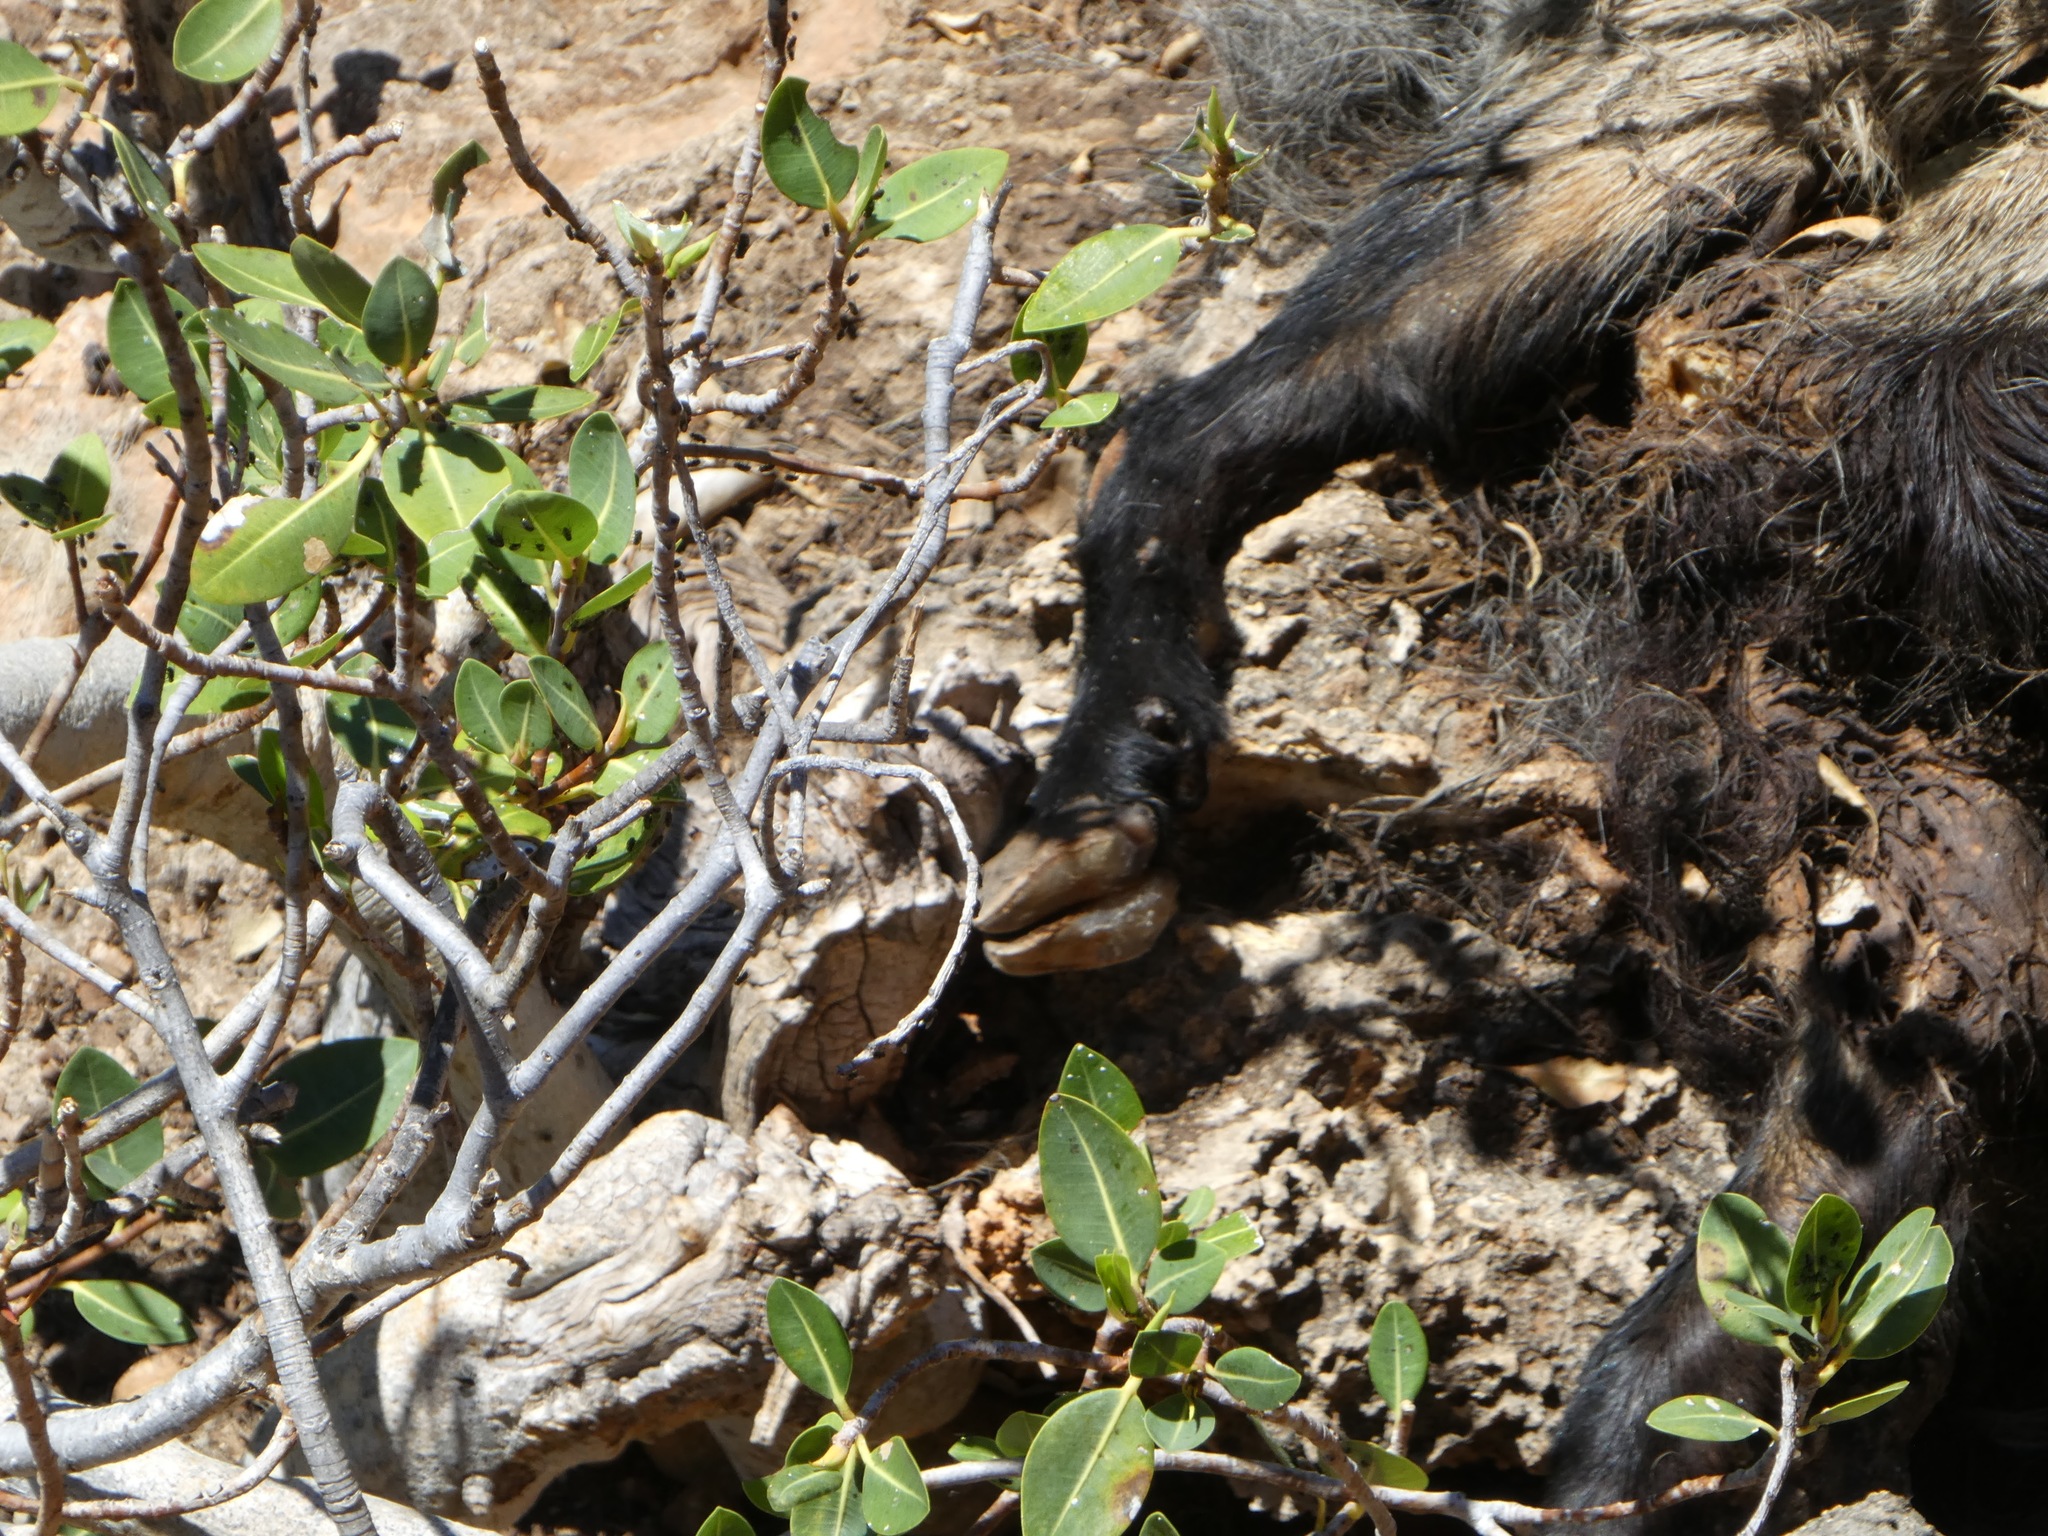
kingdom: Animalia
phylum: Chordata
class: Mammalia
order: Artiodactyla
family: Bovidae
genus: Capra
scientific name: Capra hircus
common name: Domestic goat
